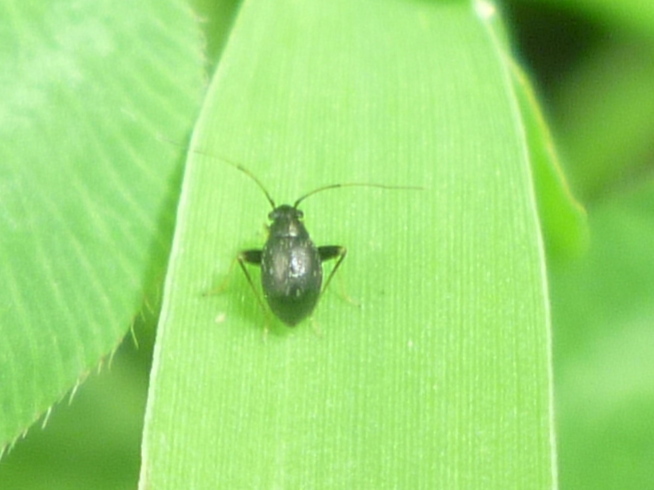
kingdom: Animalia
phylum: Arthropoda
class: Insecta
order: Hemiptera
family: Miridae
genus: Microtechnites
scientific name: Microtechnites bractatus
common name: Garden fleahopper
